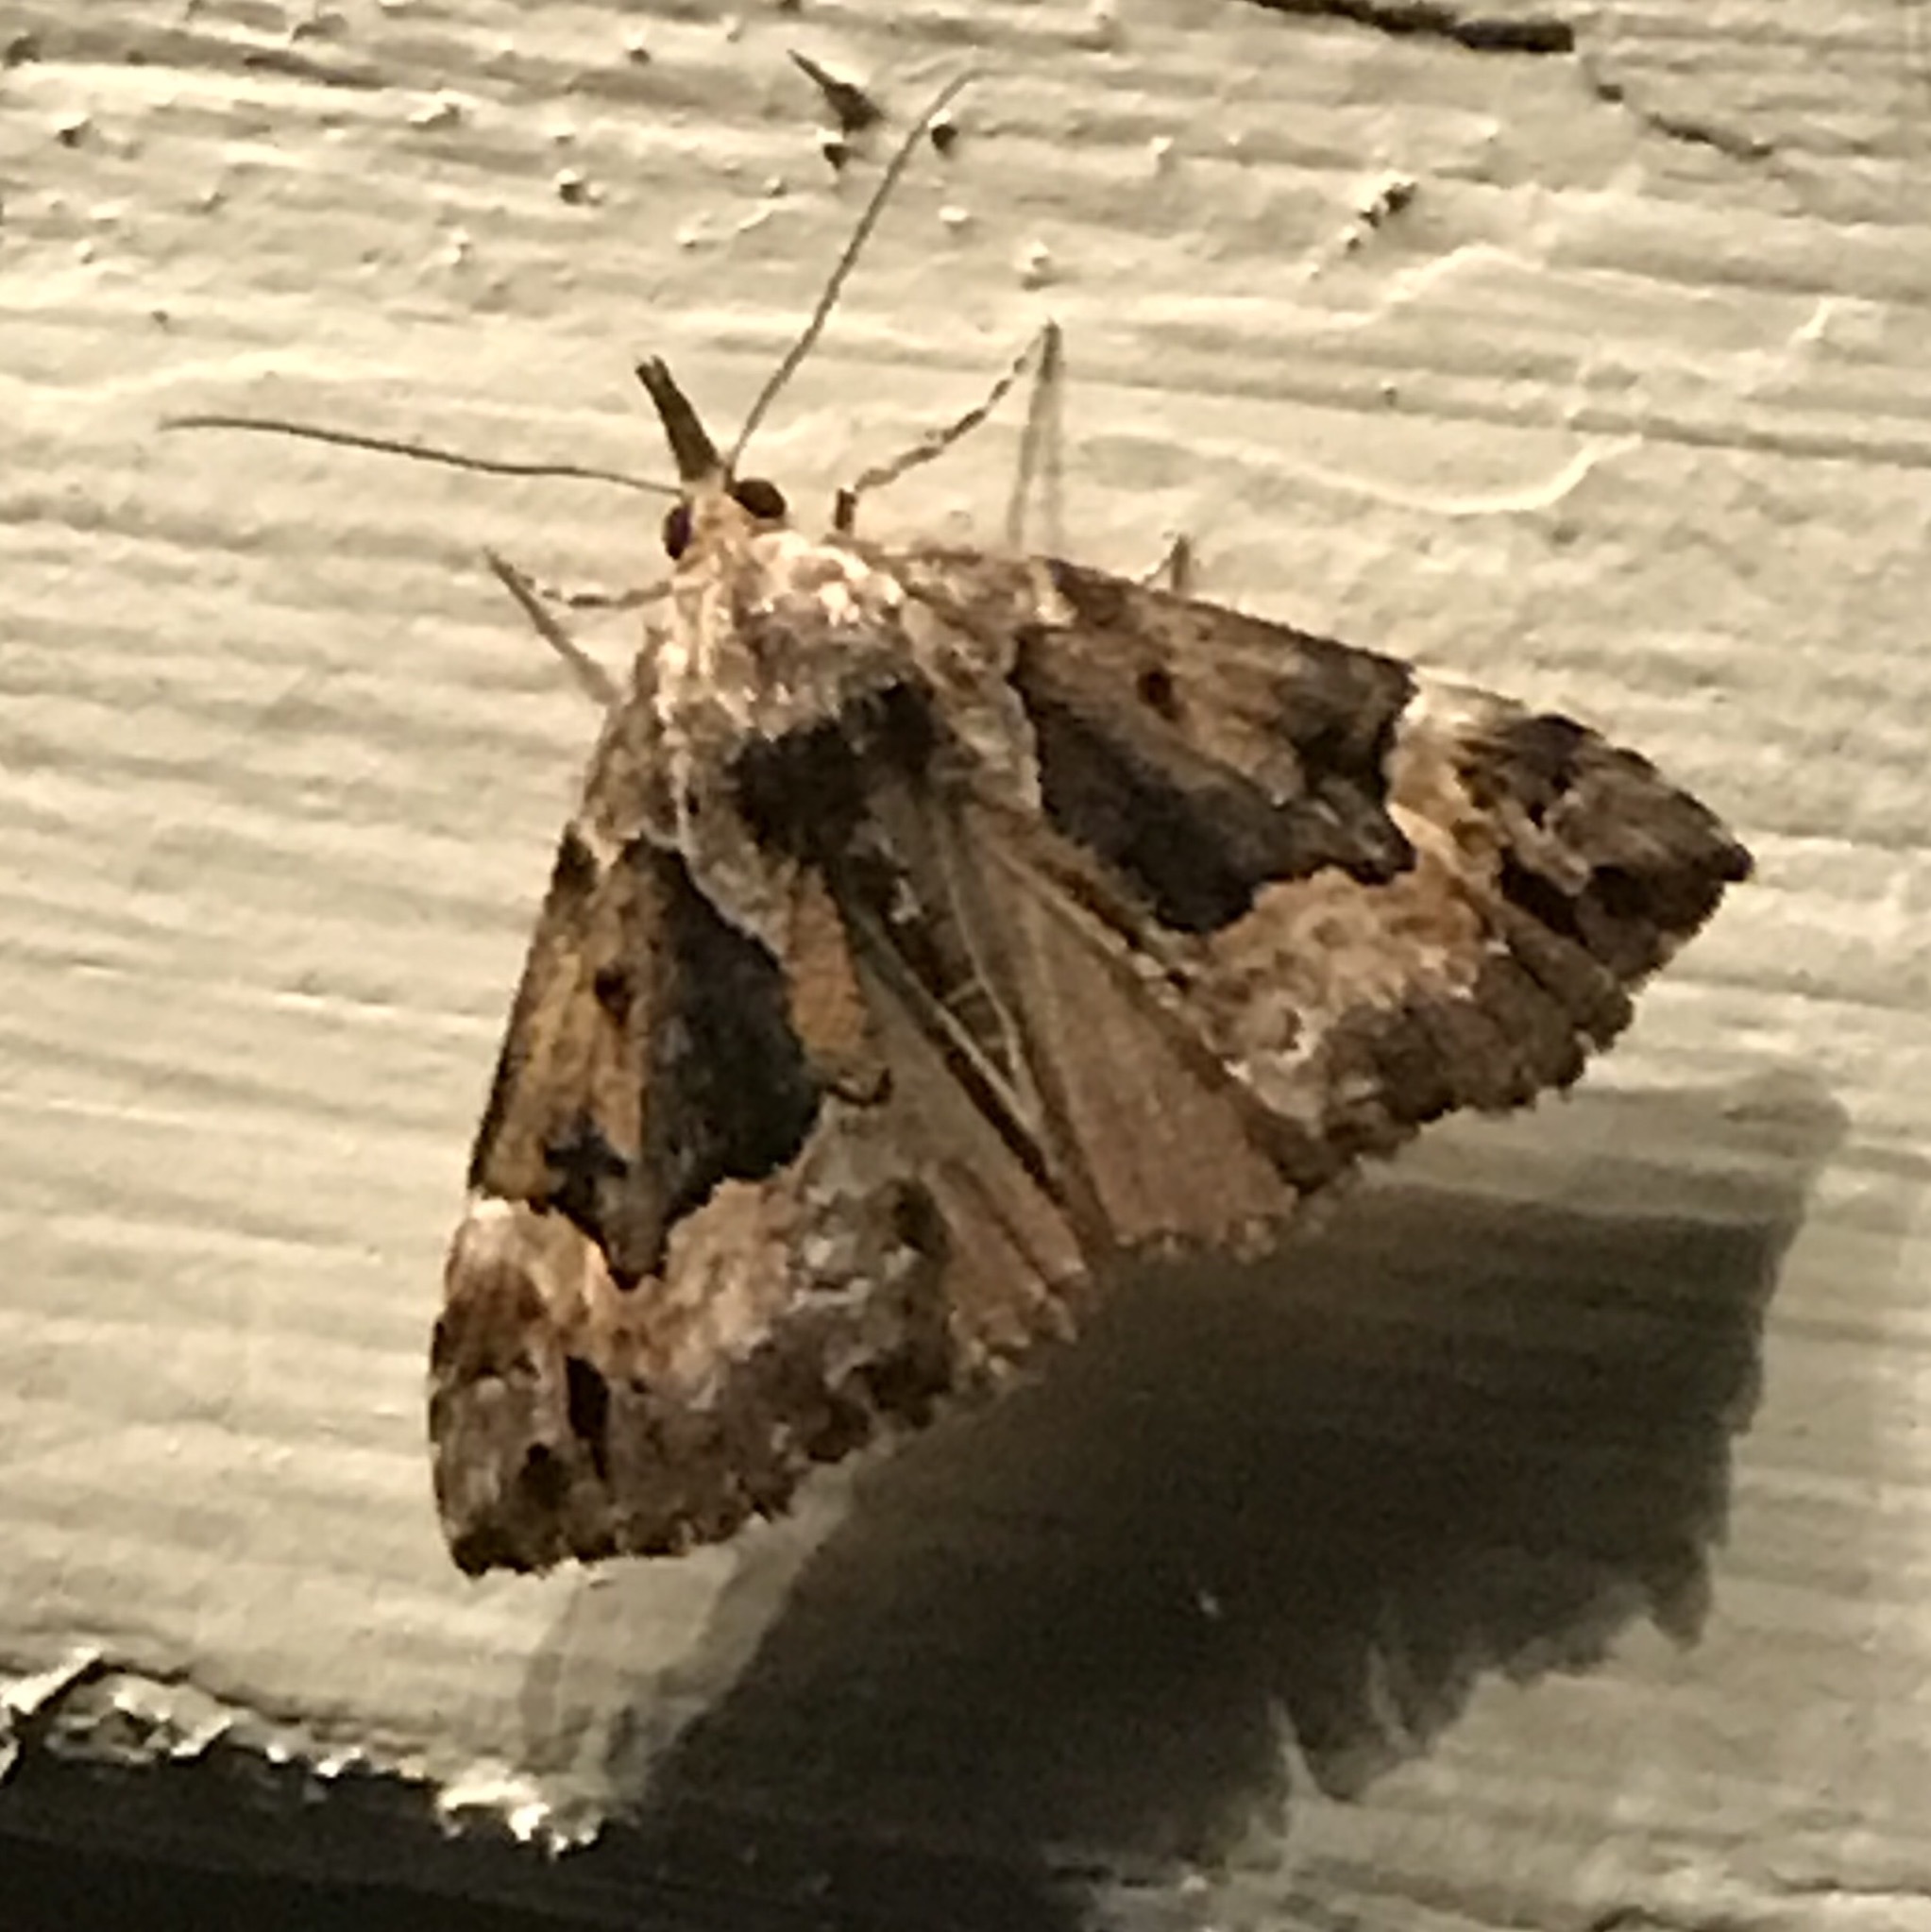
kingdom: Animalia
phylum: Arthropoda
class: Insecta
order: Lepidoptera
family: Erebidae
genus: Hypena
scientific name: Hypena palparia
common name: Mottled bomolocha moth
